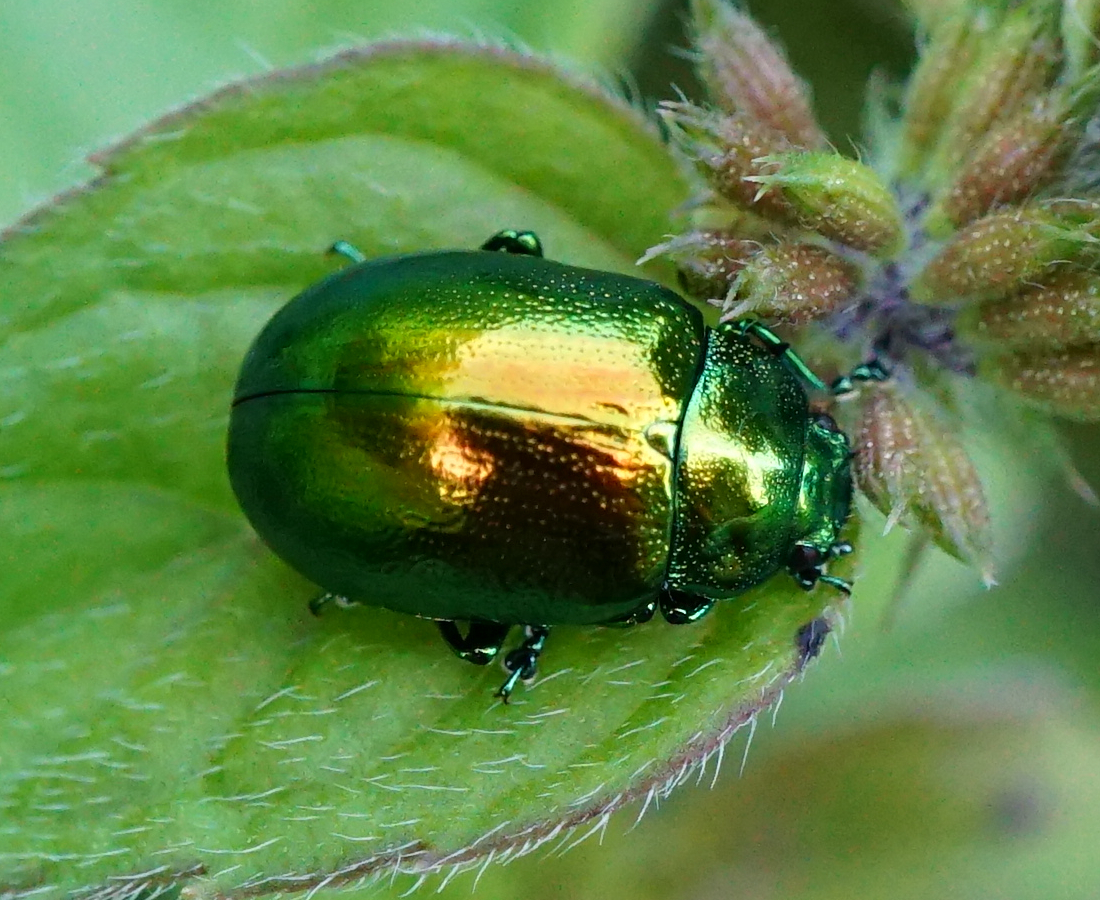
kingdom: Animalia
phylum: Arthropoda
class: Insecta
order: Coleoptera
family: Chrysomelidae
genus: Chrysolina
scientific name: Chrysolina herbacea
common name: Mint leaf beatle
